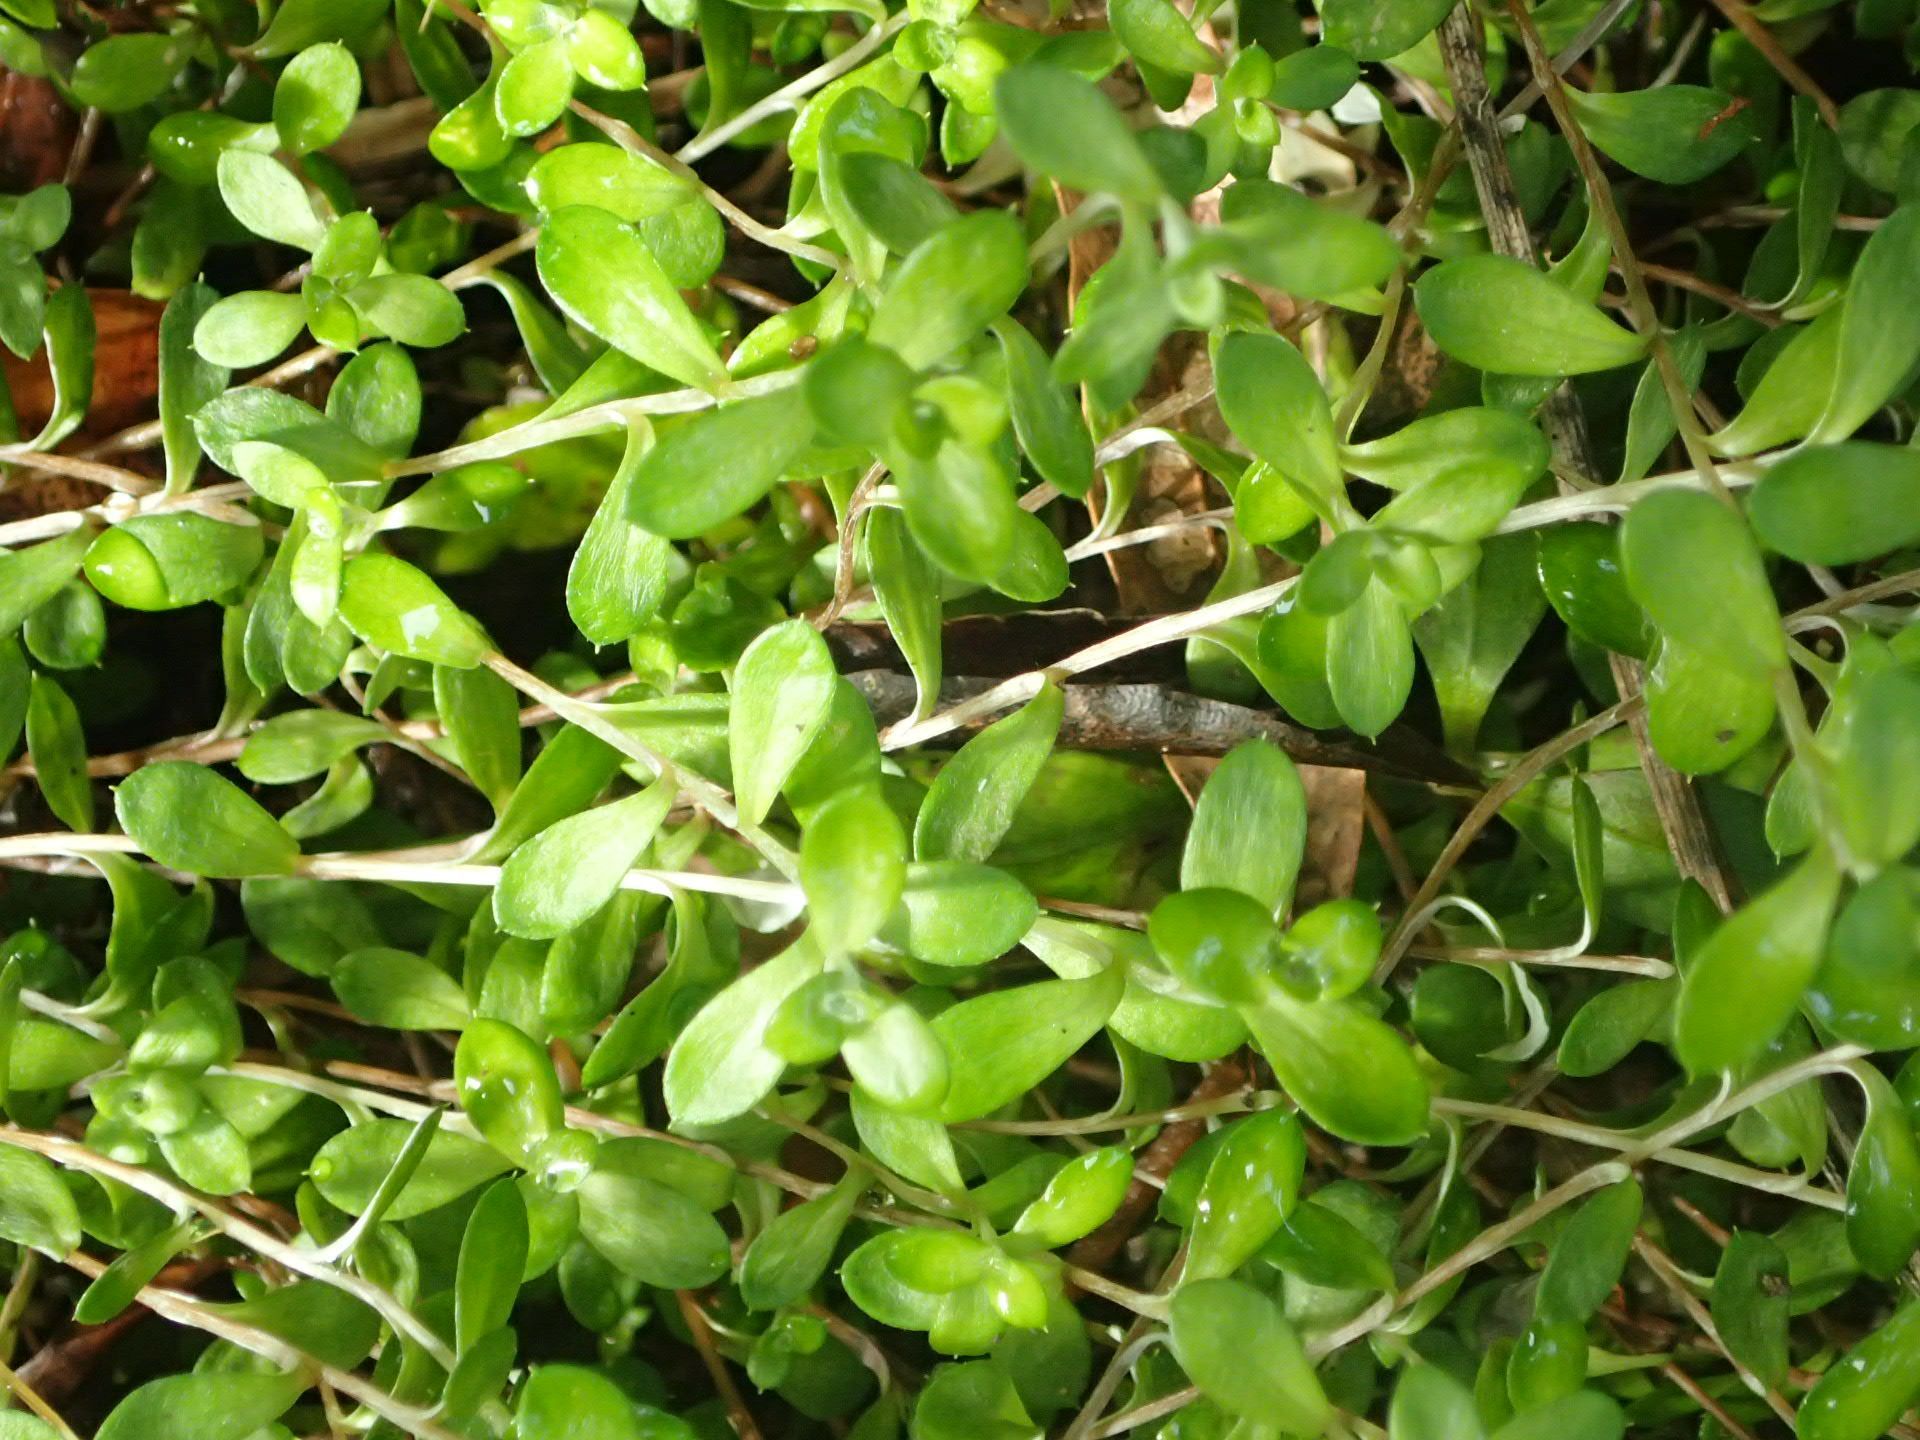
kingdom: Plantae
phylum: Tracheophyta
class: Magnoliopsida
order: Asterales
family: Asteraceae
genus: Helichrysum
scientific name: Helichrysum filicaule
